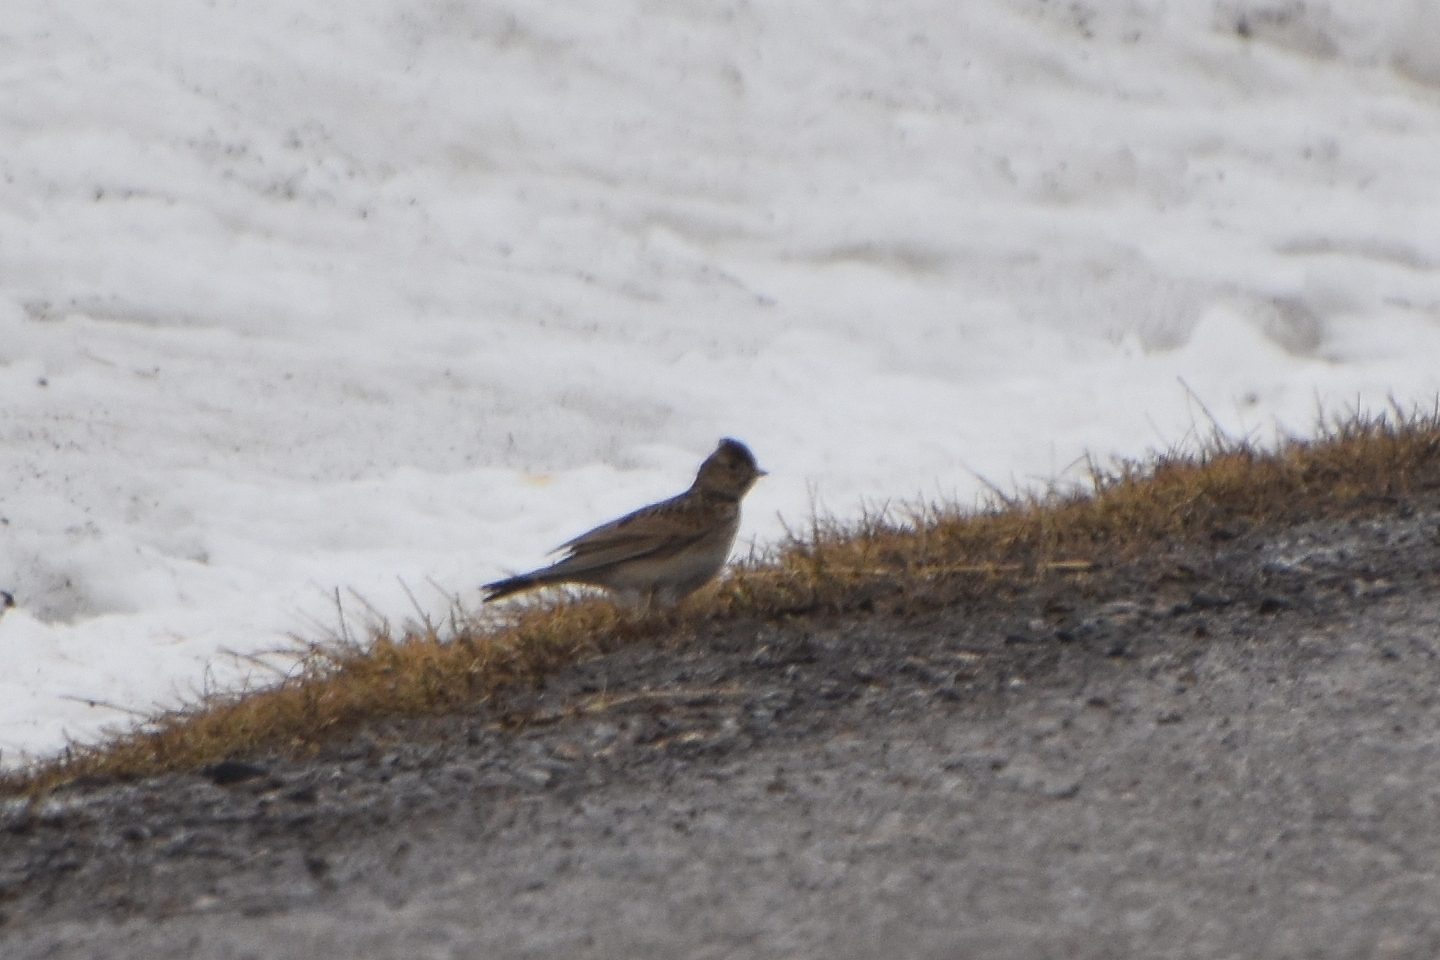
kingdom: Animalia
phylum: Chordata
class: Aves
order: Passeriformes
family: Alaudidae
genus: Alauda
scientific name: Alauda arvensis
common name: Eurasian skylark
